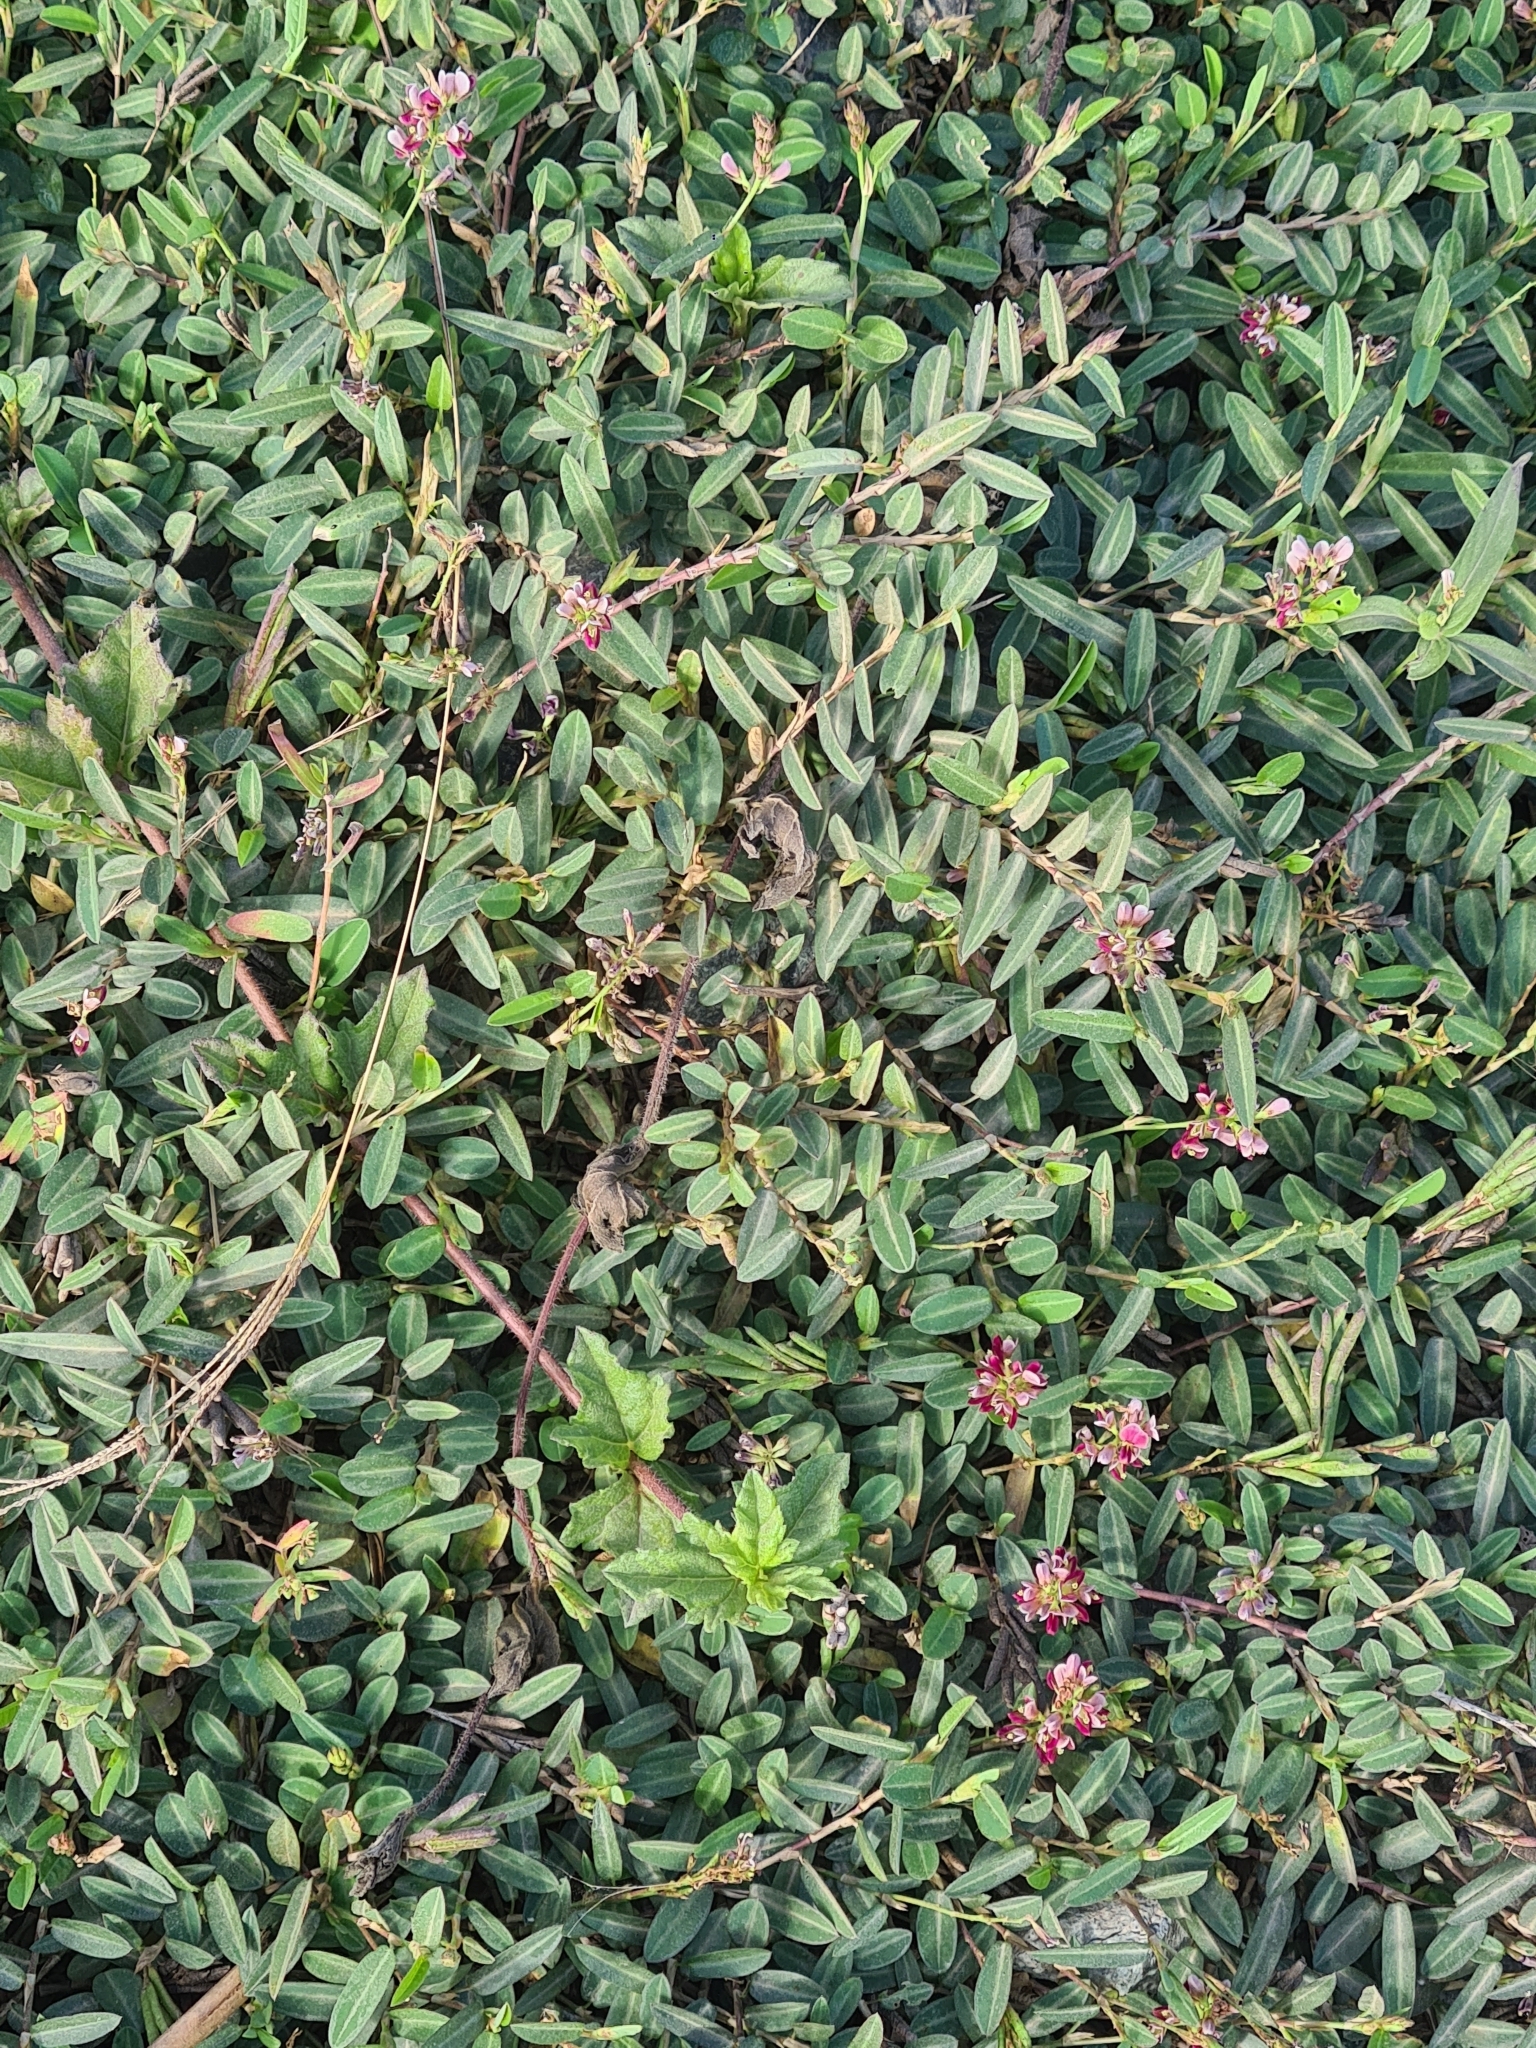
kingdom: Plantae
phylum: Tracheophyta
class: Magnoliopsida
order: Fabales
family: Fabaceae
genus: Alysicarpus
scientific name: Alysicarpus vaginalis
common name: White moneywort
